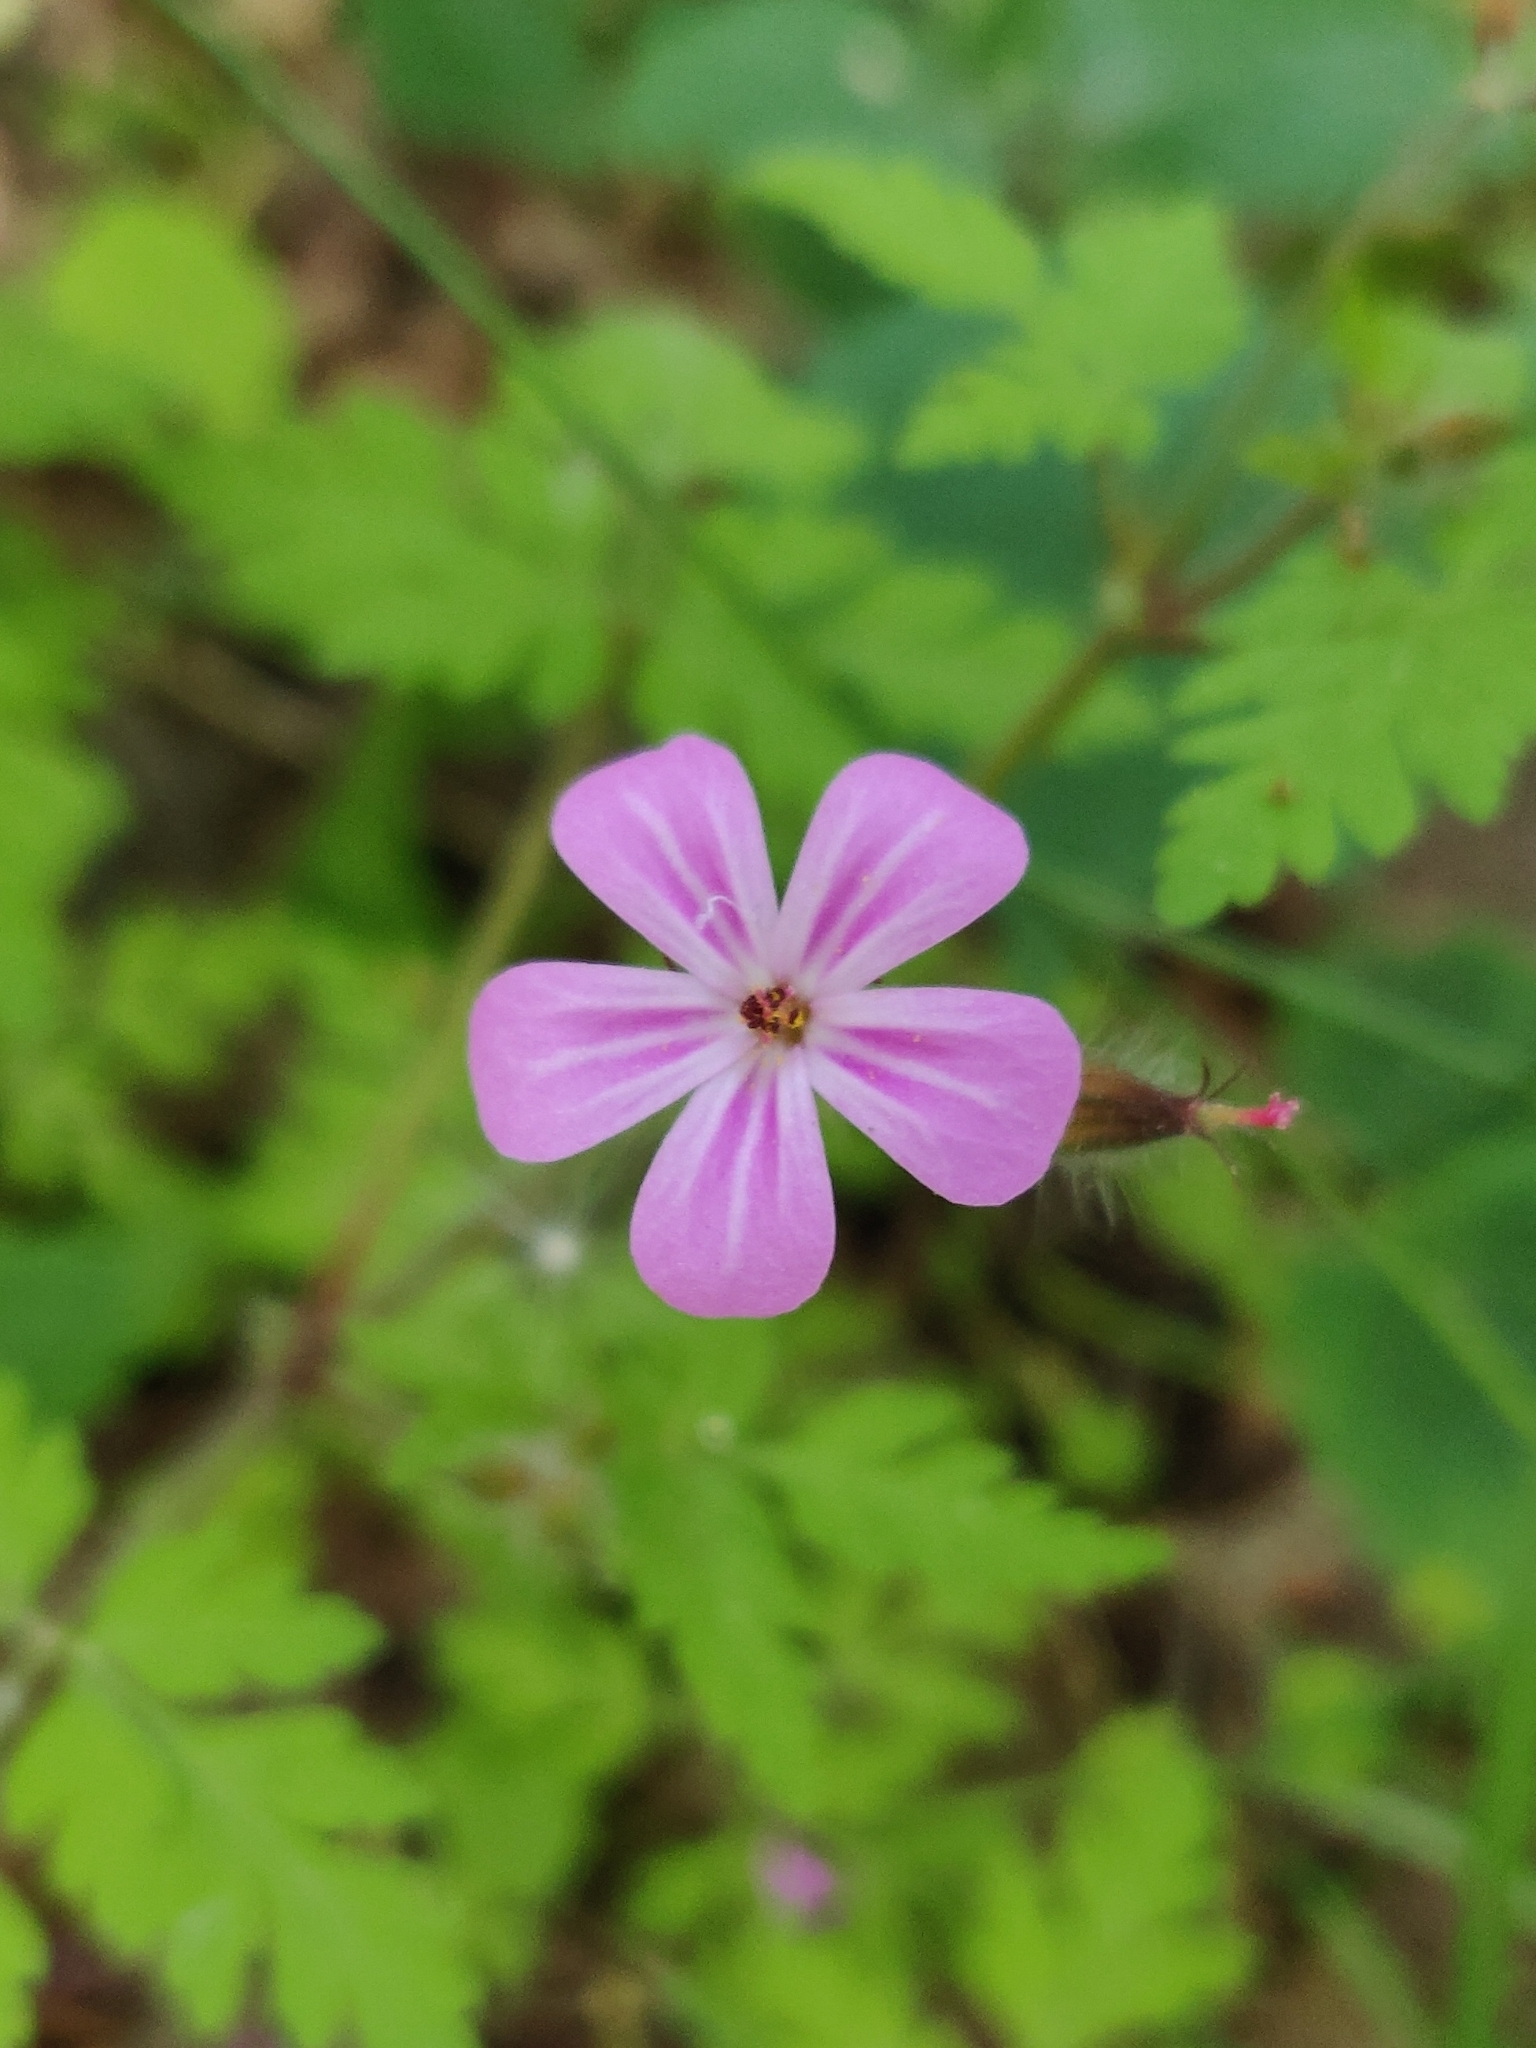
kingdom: Plantae
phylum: Tracheophyta
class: Magnoliopsida
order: Geraniales
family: Geraniaceae
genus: Geranium
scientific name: Geranium robertianum
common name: Herb-robert
